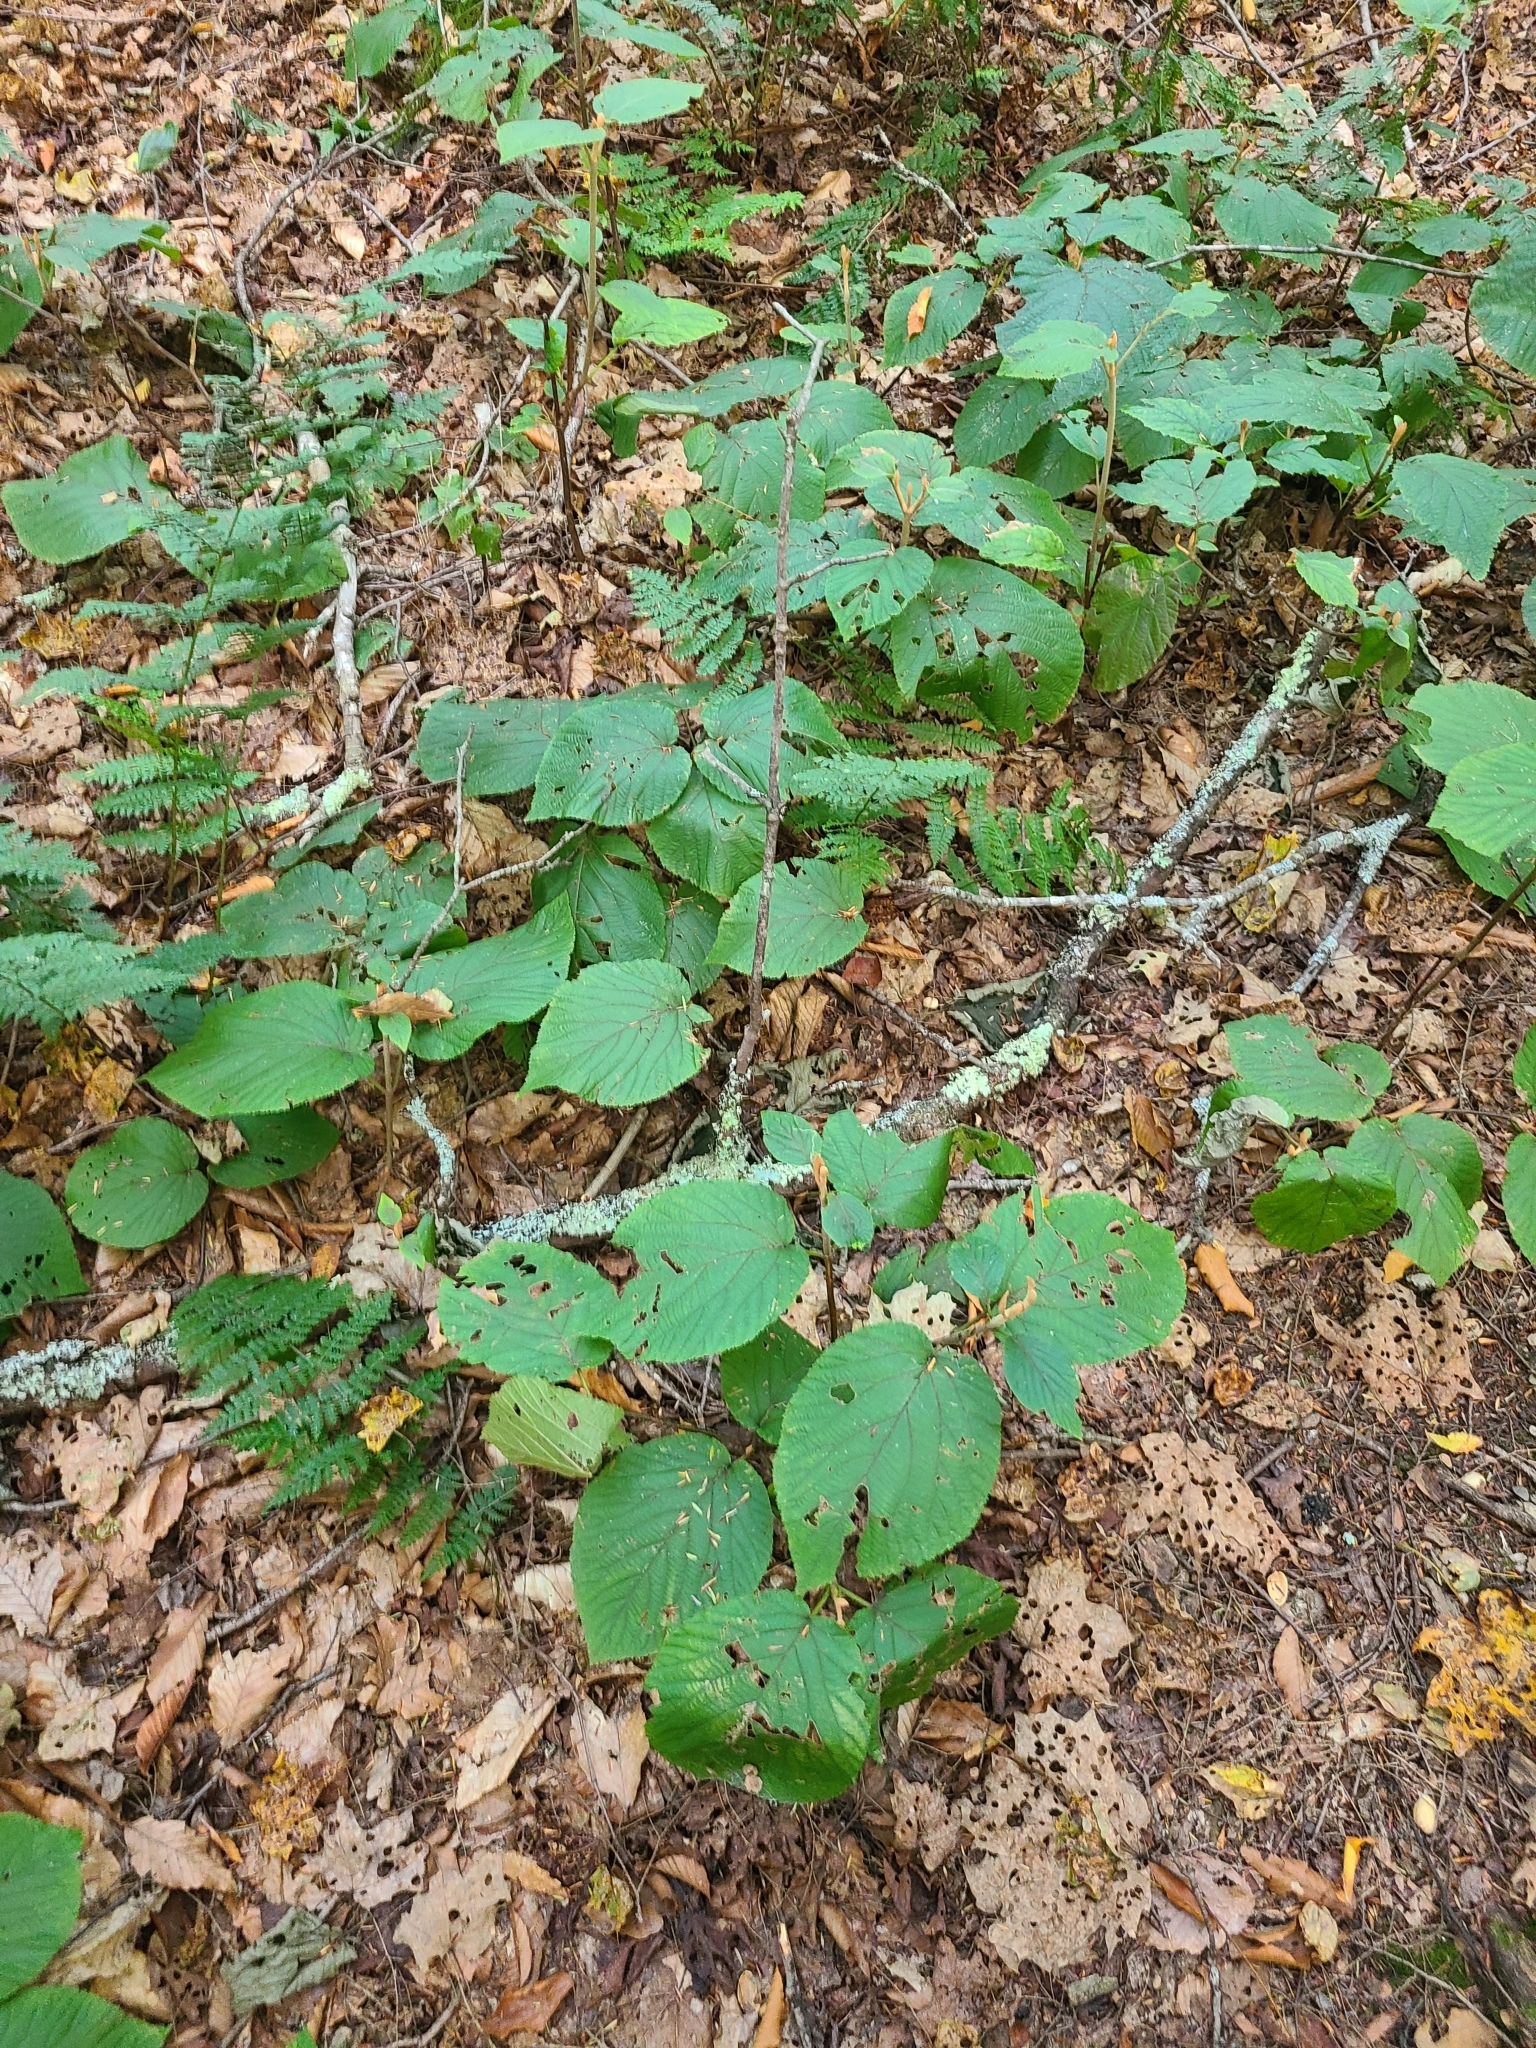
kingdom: Plantae
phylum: Tracheophyta
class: Magnoliopsida
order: Dipsacales
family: Viburnaceae
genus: Viburnum
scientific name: Viburnum lantanoides
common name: Hobblebush
